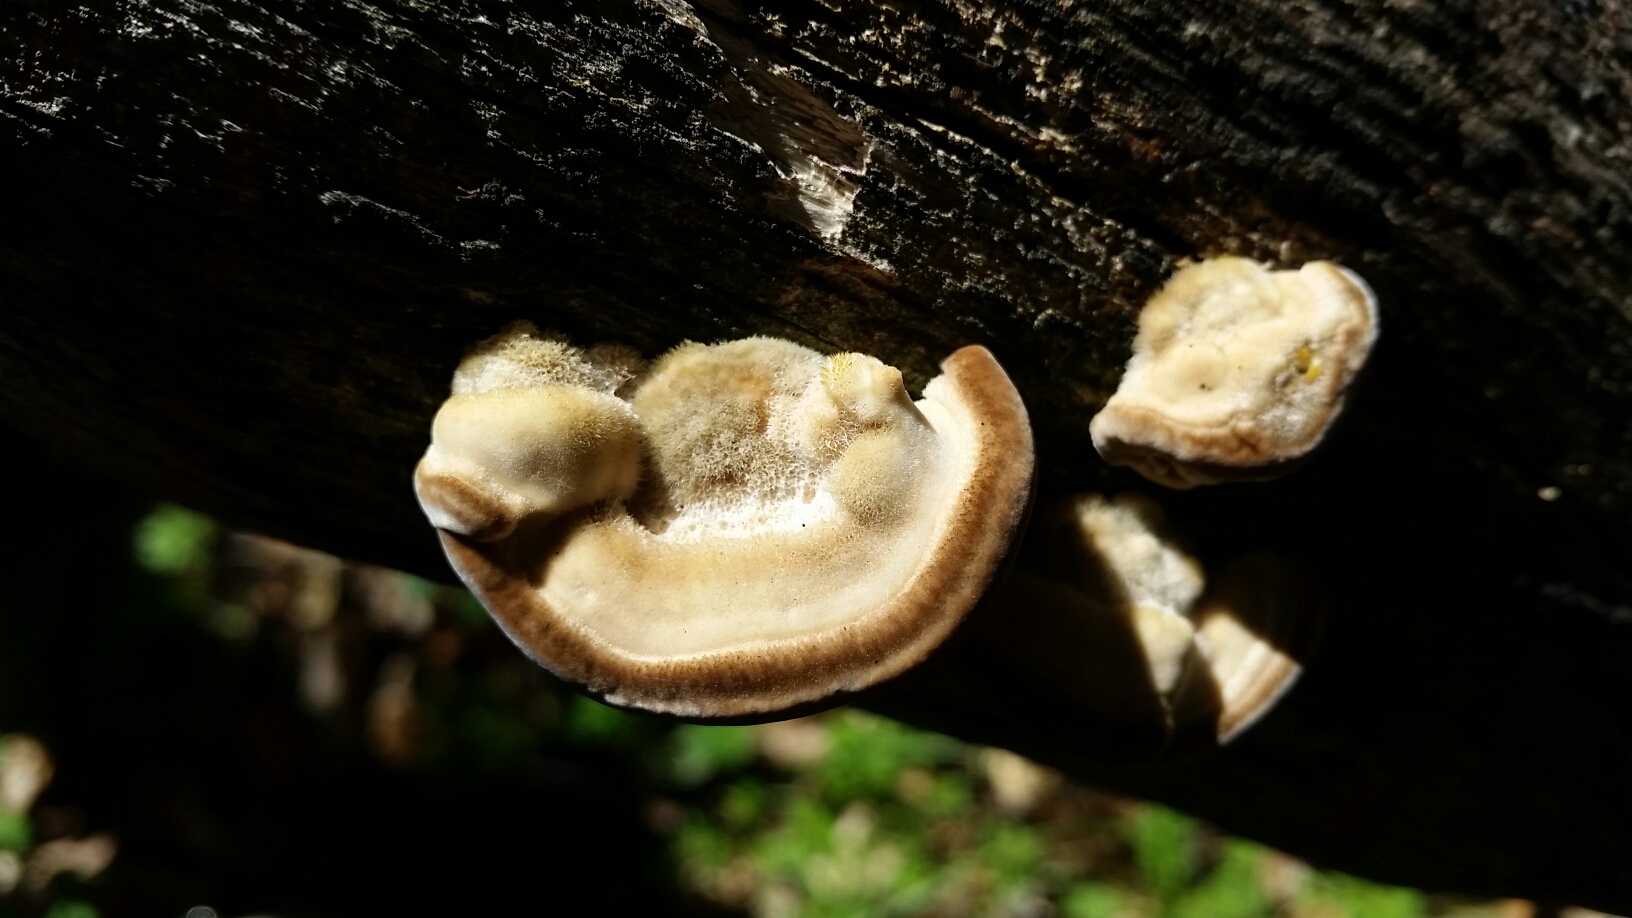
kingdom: Fungi
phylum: Basidiomycota
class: Agaricomycetes
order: Polyporales
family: Polyporaceae
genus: Lenzites
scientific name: Lenzites betulinus
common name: Birch mazegill
